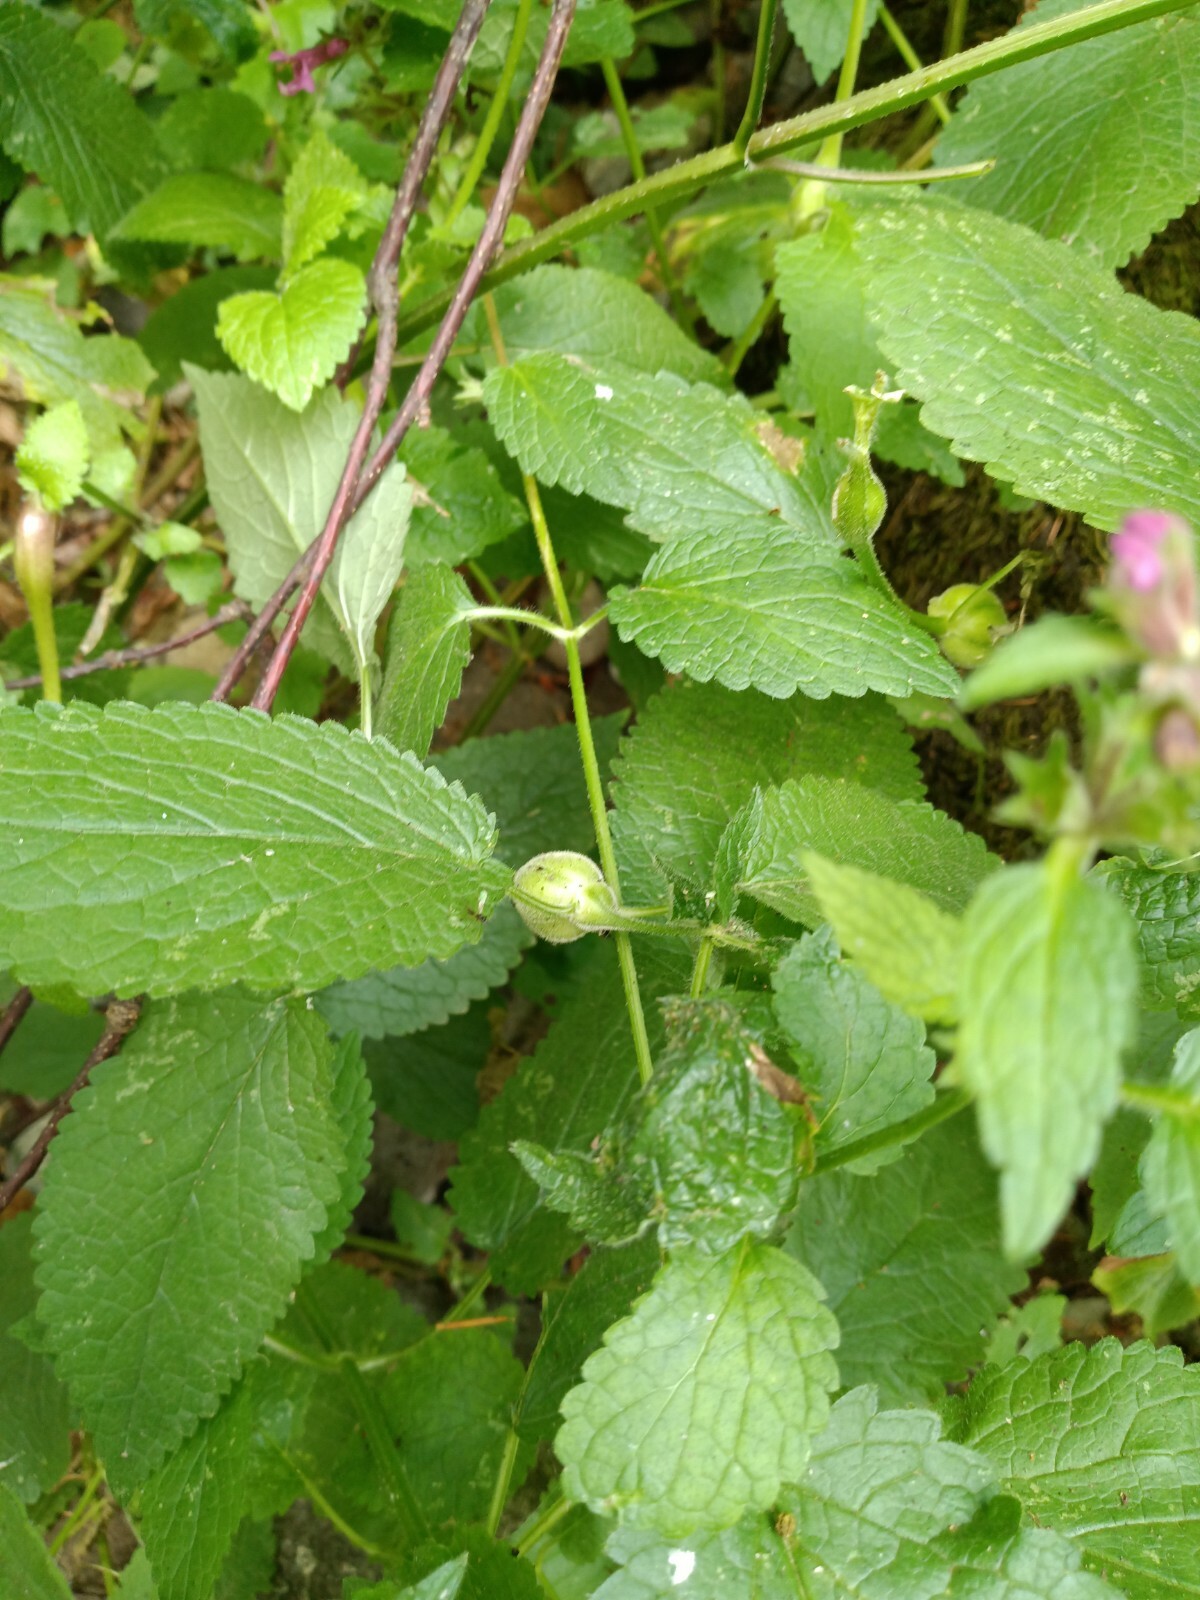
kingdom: Plantae
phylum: Tracheophyta
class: Magnoliopsida
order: Lamiales
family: Lamiaceae
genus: Stachys
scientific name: Stachys chamissonis
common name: Coastal hedge-nettle
